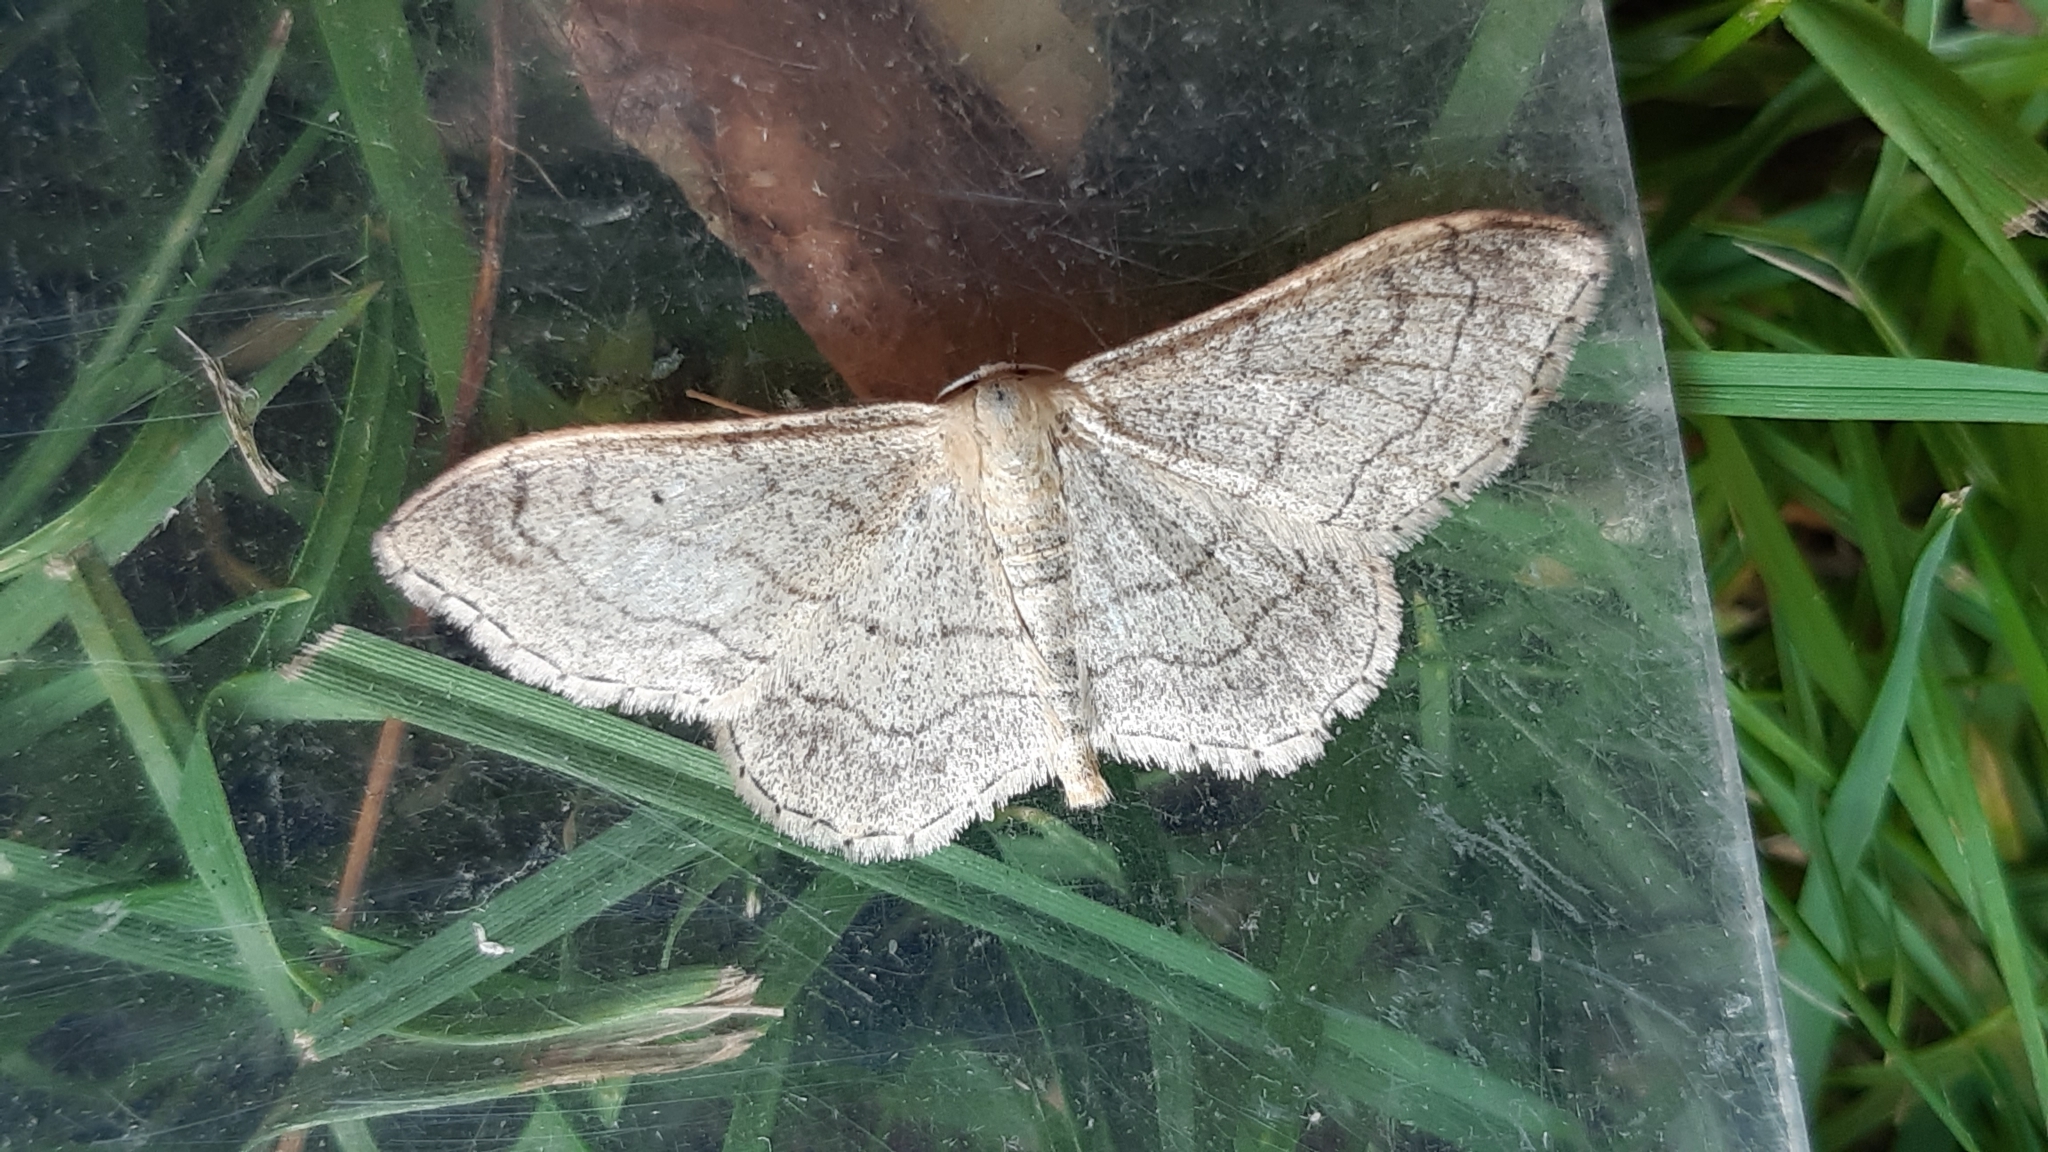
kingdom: Animalia
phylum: Arthropoda
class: Insecta
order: Lepidoptera
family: Geometridae
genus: Idaea
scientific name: Idaea aversata
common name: Riband wave
